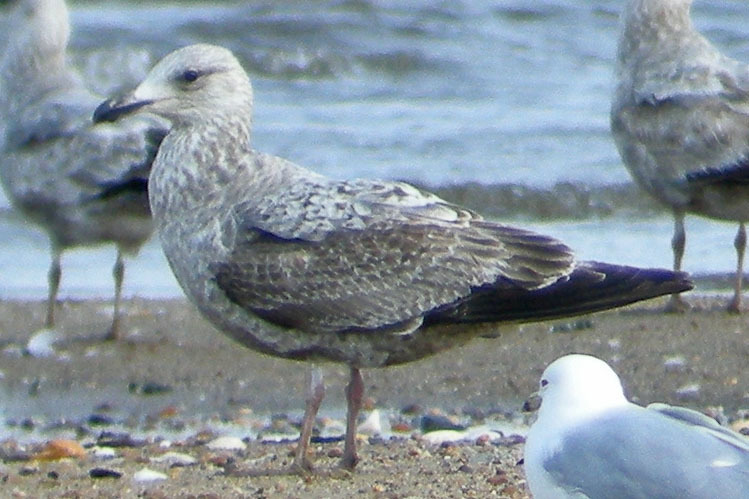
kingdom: Animalia
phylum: Chordata
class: Aves
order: Charadriiformes
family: Laridae
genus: Larus
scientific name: Larus argentatus
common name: Herring gull
